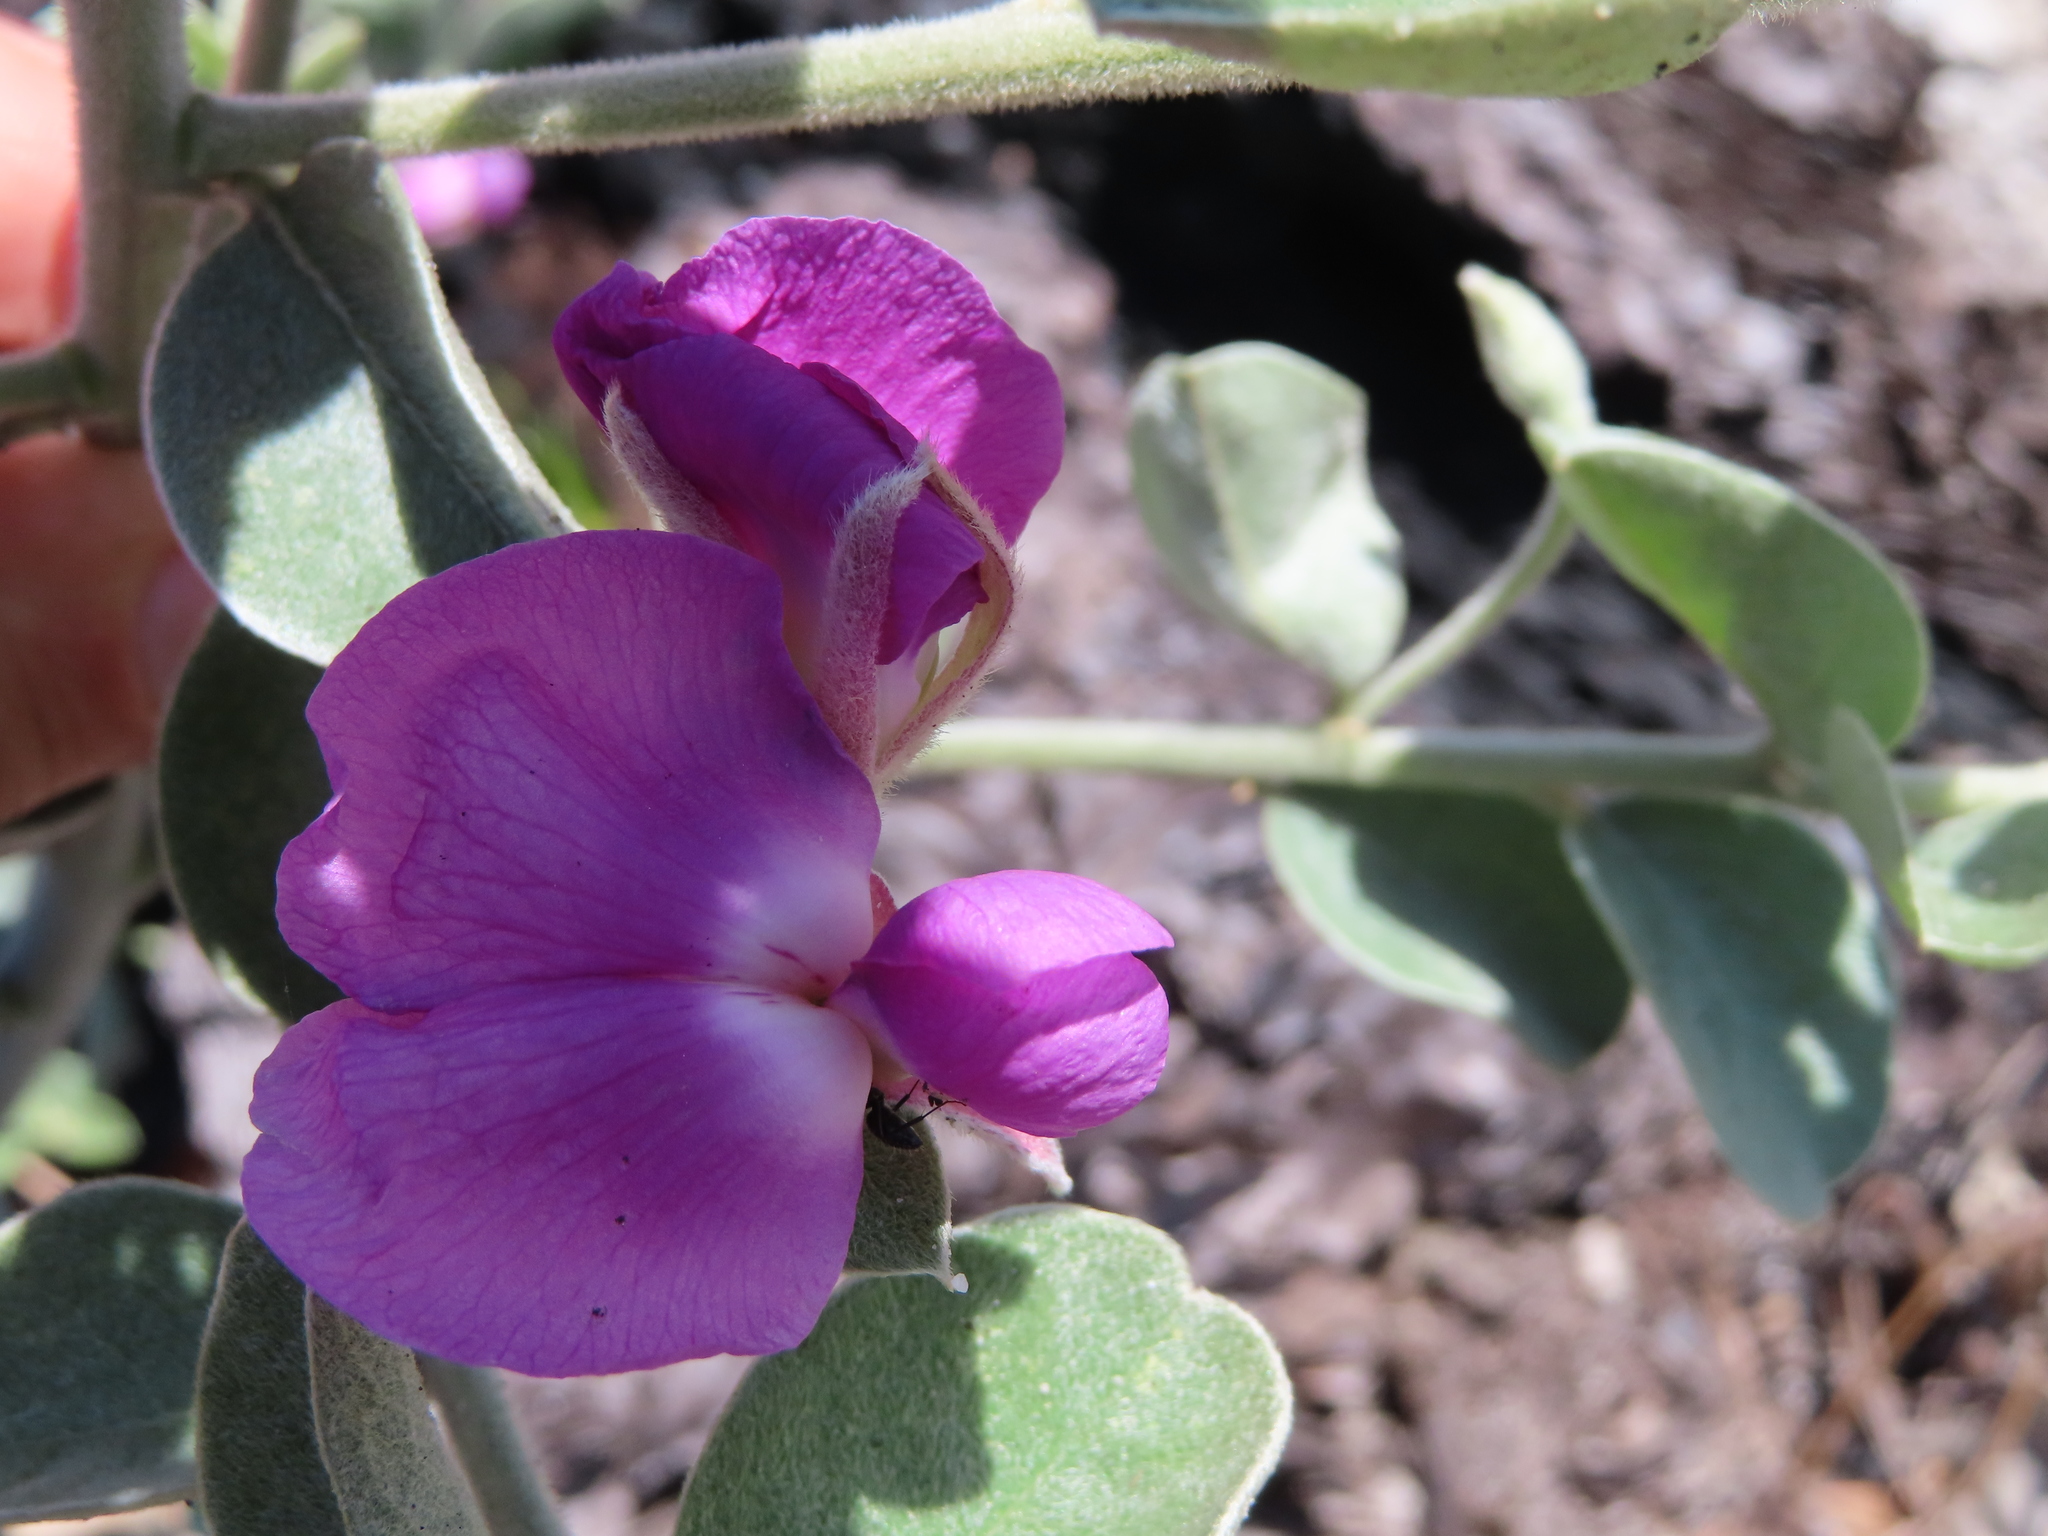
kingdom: Plantae
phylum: Tracheophyta
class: Magnoliopsida
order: Fabales
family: Fabaceae
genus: Podalyria
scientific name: Podalyria hirsuta
